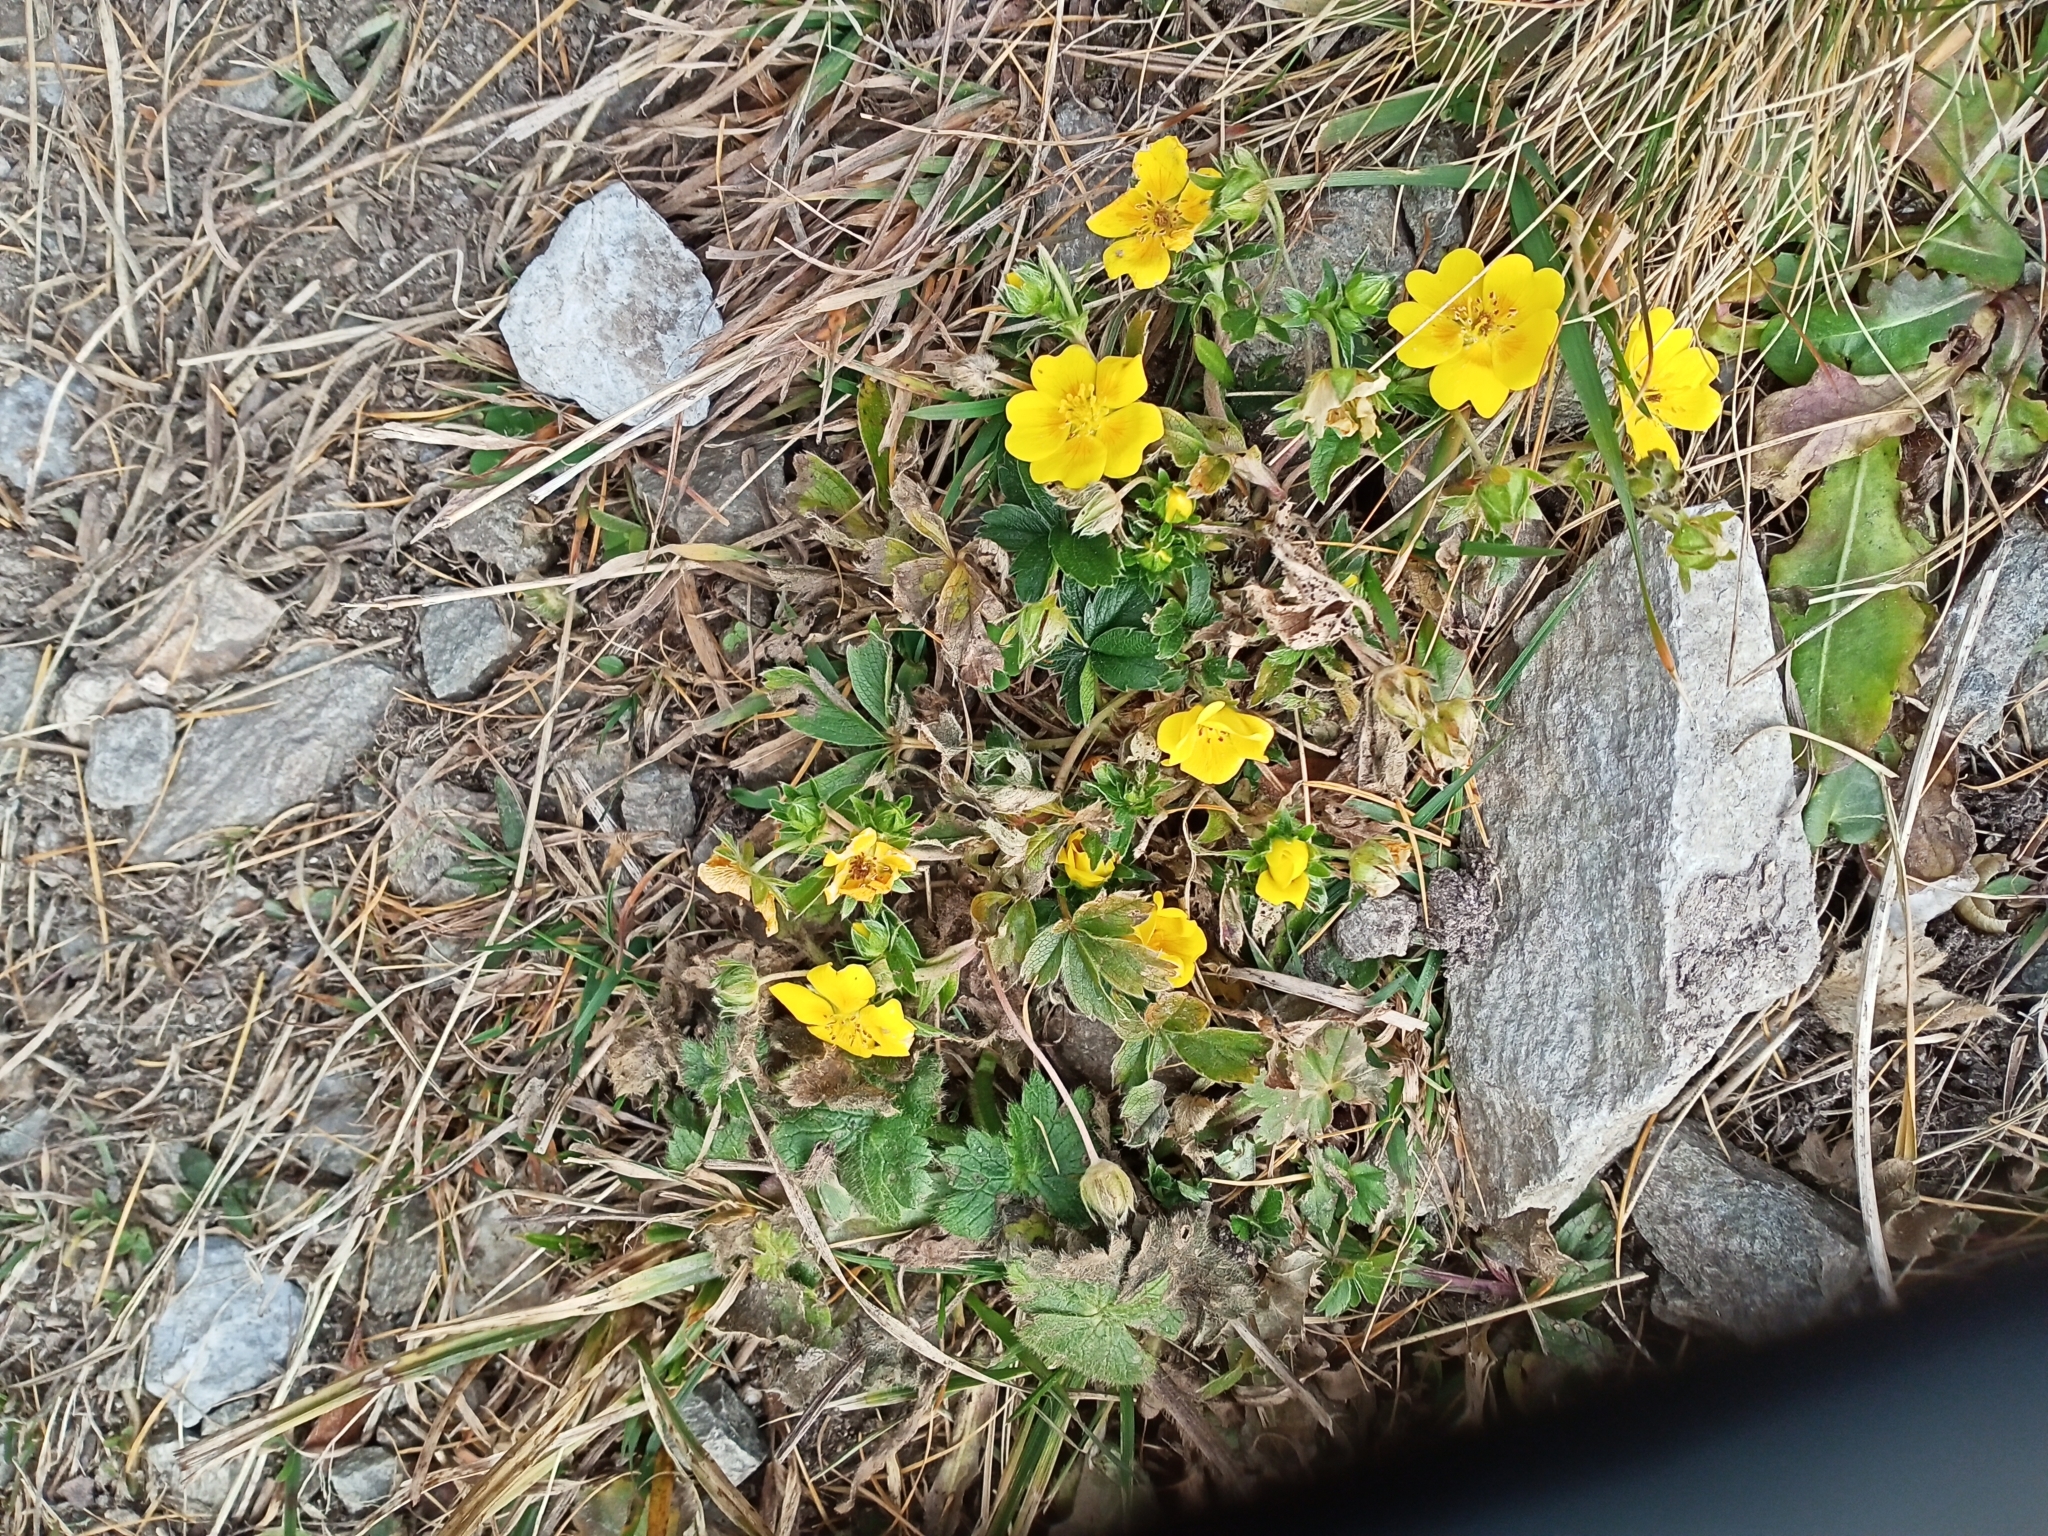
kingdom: Plantae
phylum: Tracheophyta
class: Magnoliopsida
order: Rosales
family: Rosaceae
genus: Potentilla
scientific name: Potentilla aurea
